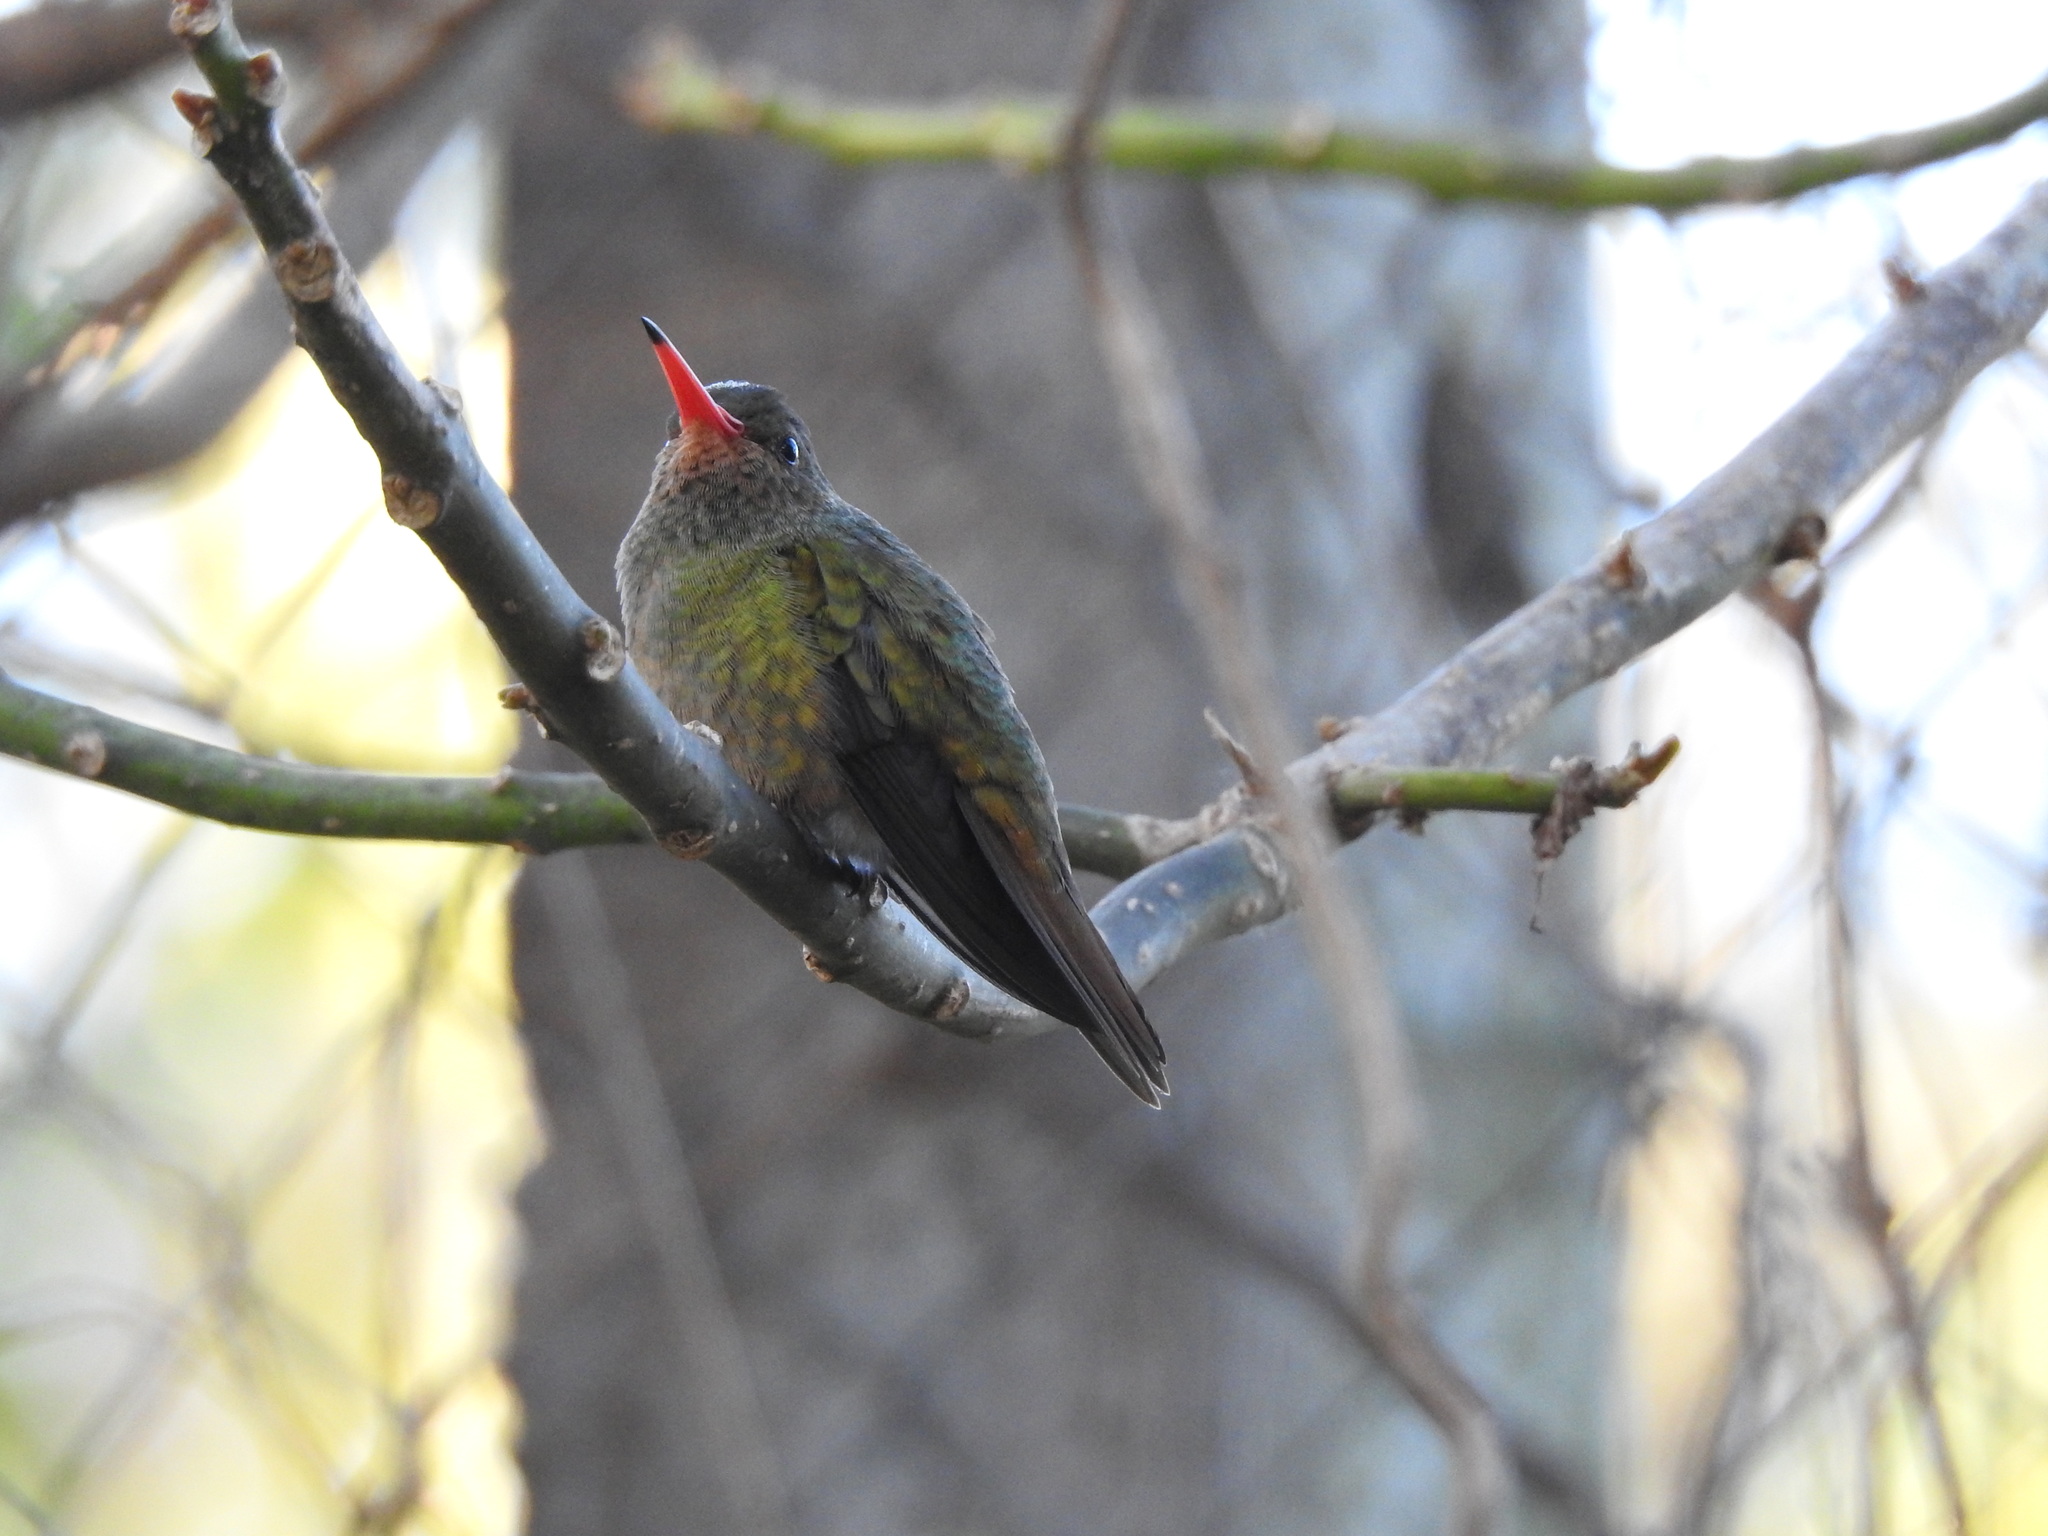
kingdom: Animalia
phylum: Chordata
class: Aves
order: Apodiformes
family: Trochilidae
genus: Hylocharis
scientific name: Hylocharis chrysura
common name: Gilded sapphire
